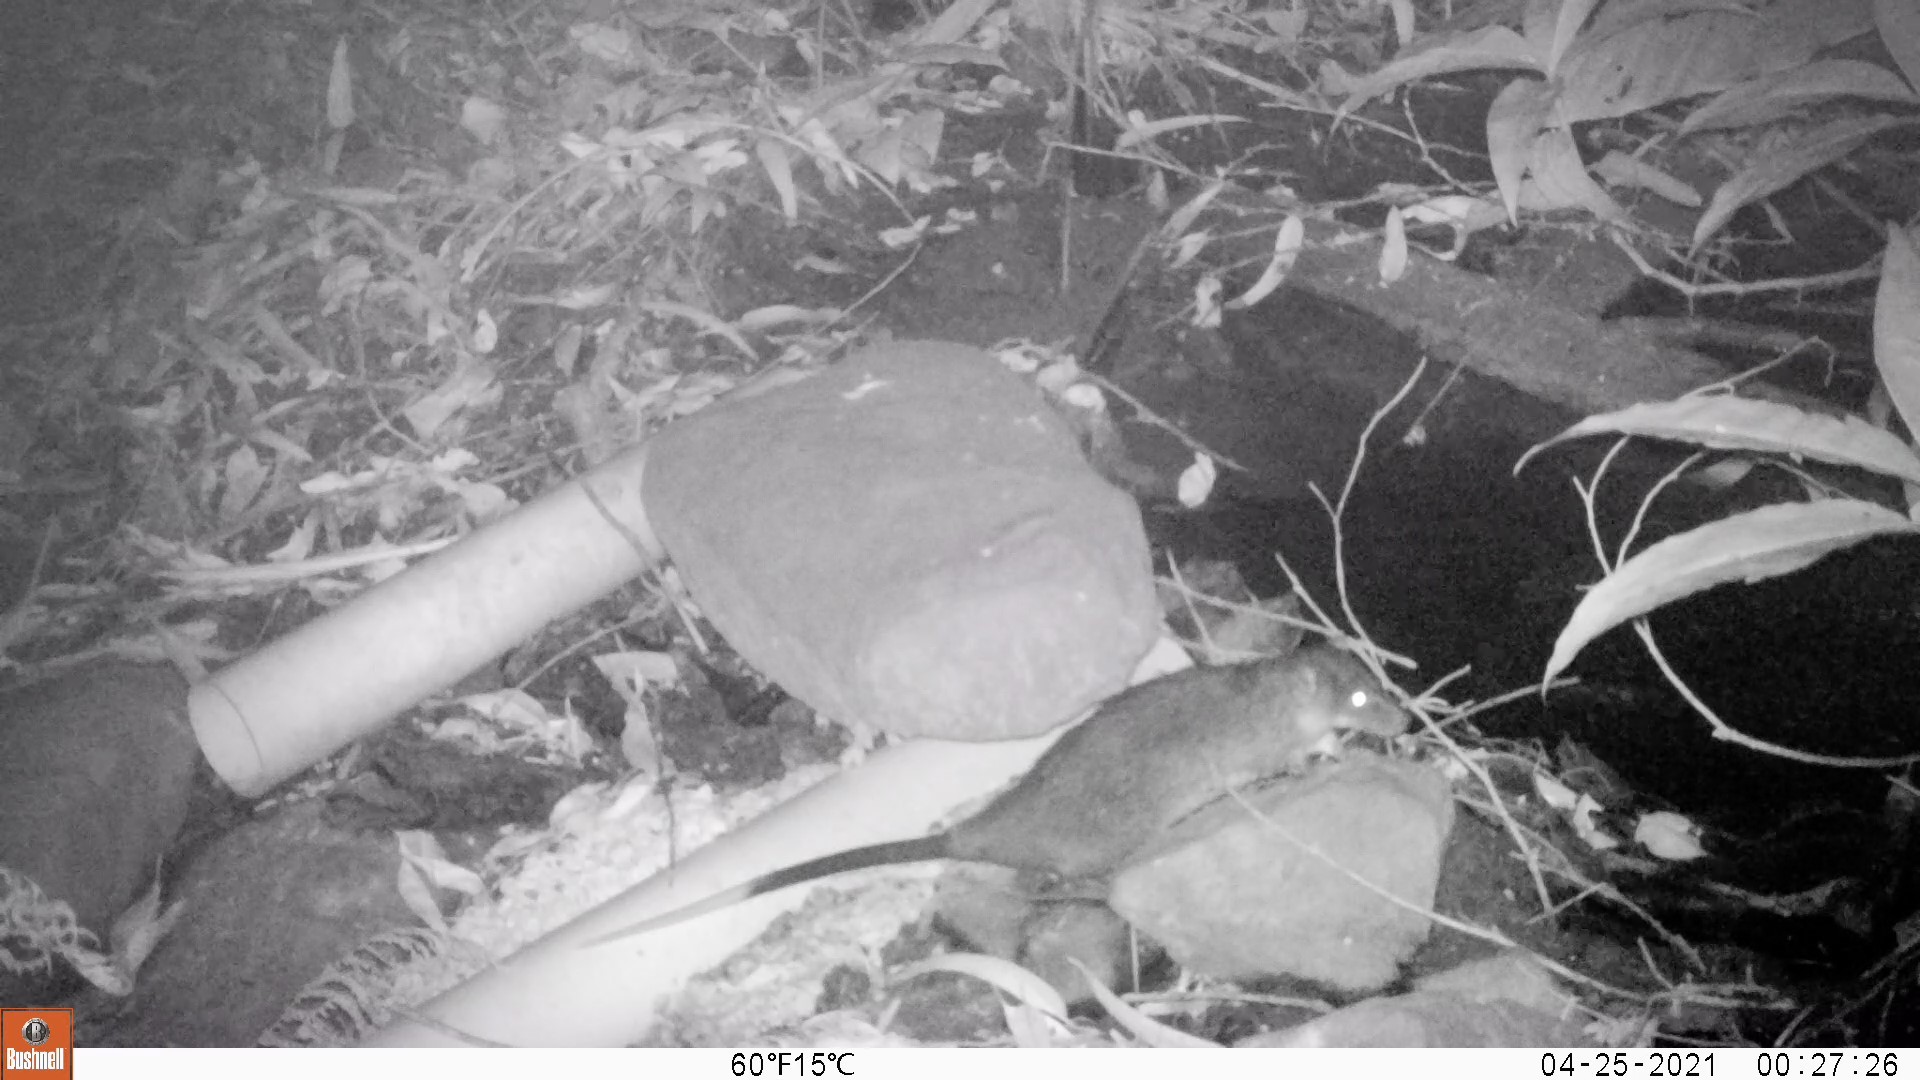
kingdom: Animalia
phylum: Chordata
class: Mammalia
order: Rodentia
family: Muridae
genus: Hydromys
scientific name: Hydromys chrysogaster
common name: Common water rat
